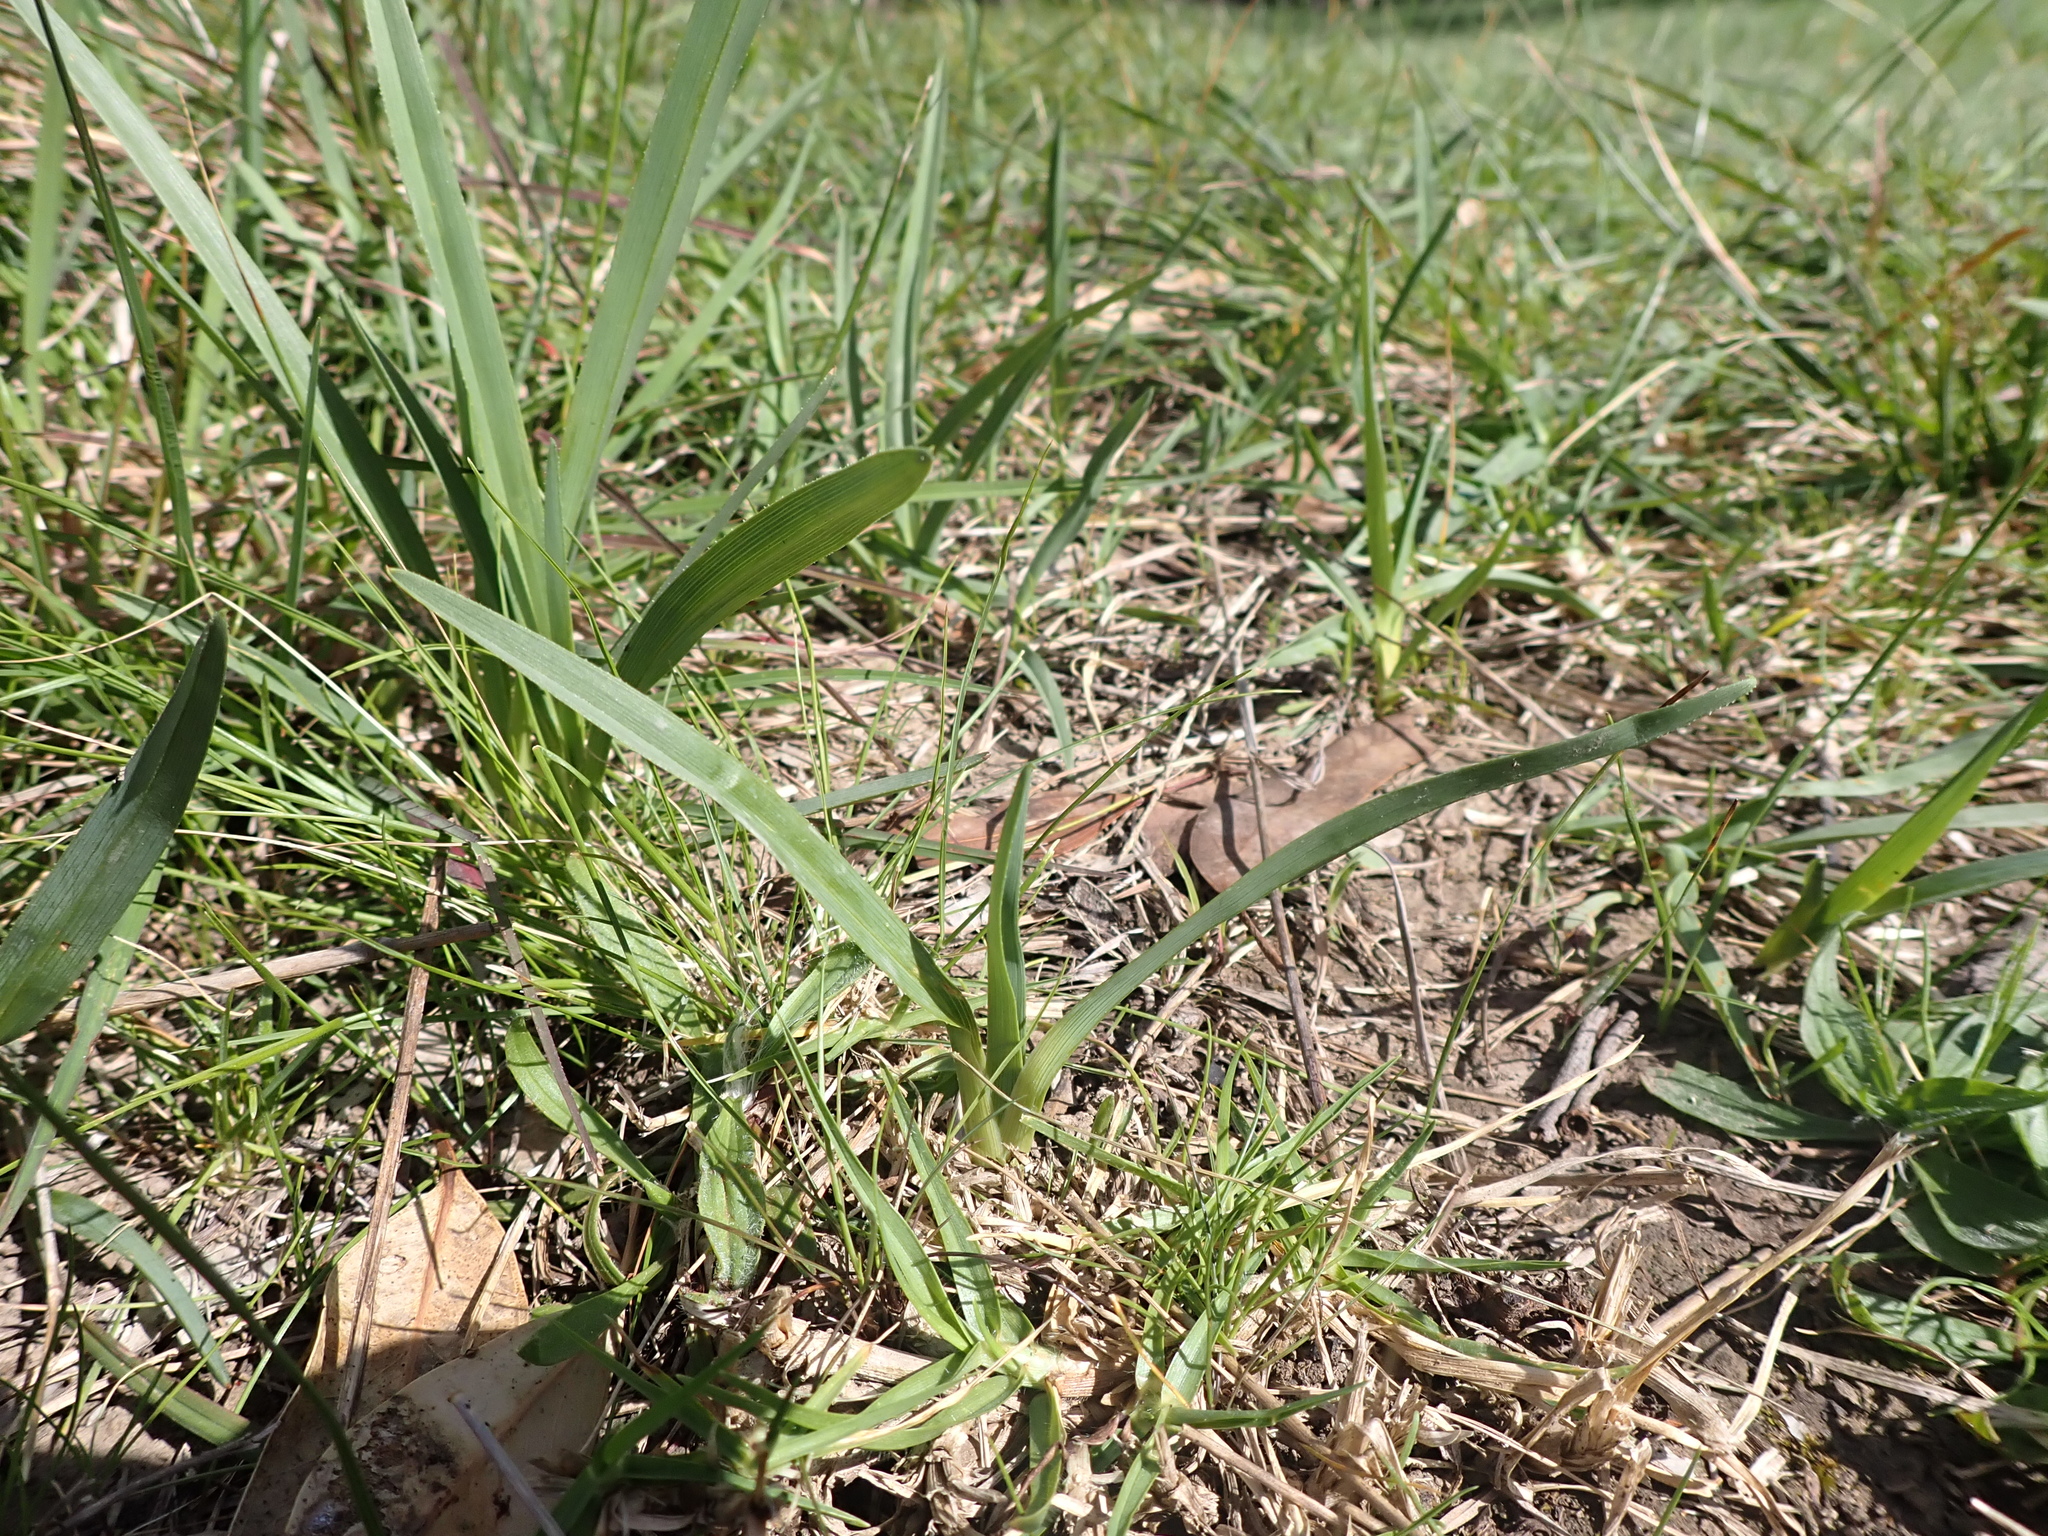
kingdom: Plantae
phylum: Tracheophyta
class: Liliopsida
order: Asparagales
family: Asphodelaceae
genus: Dianella
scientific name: Dianella amoena
